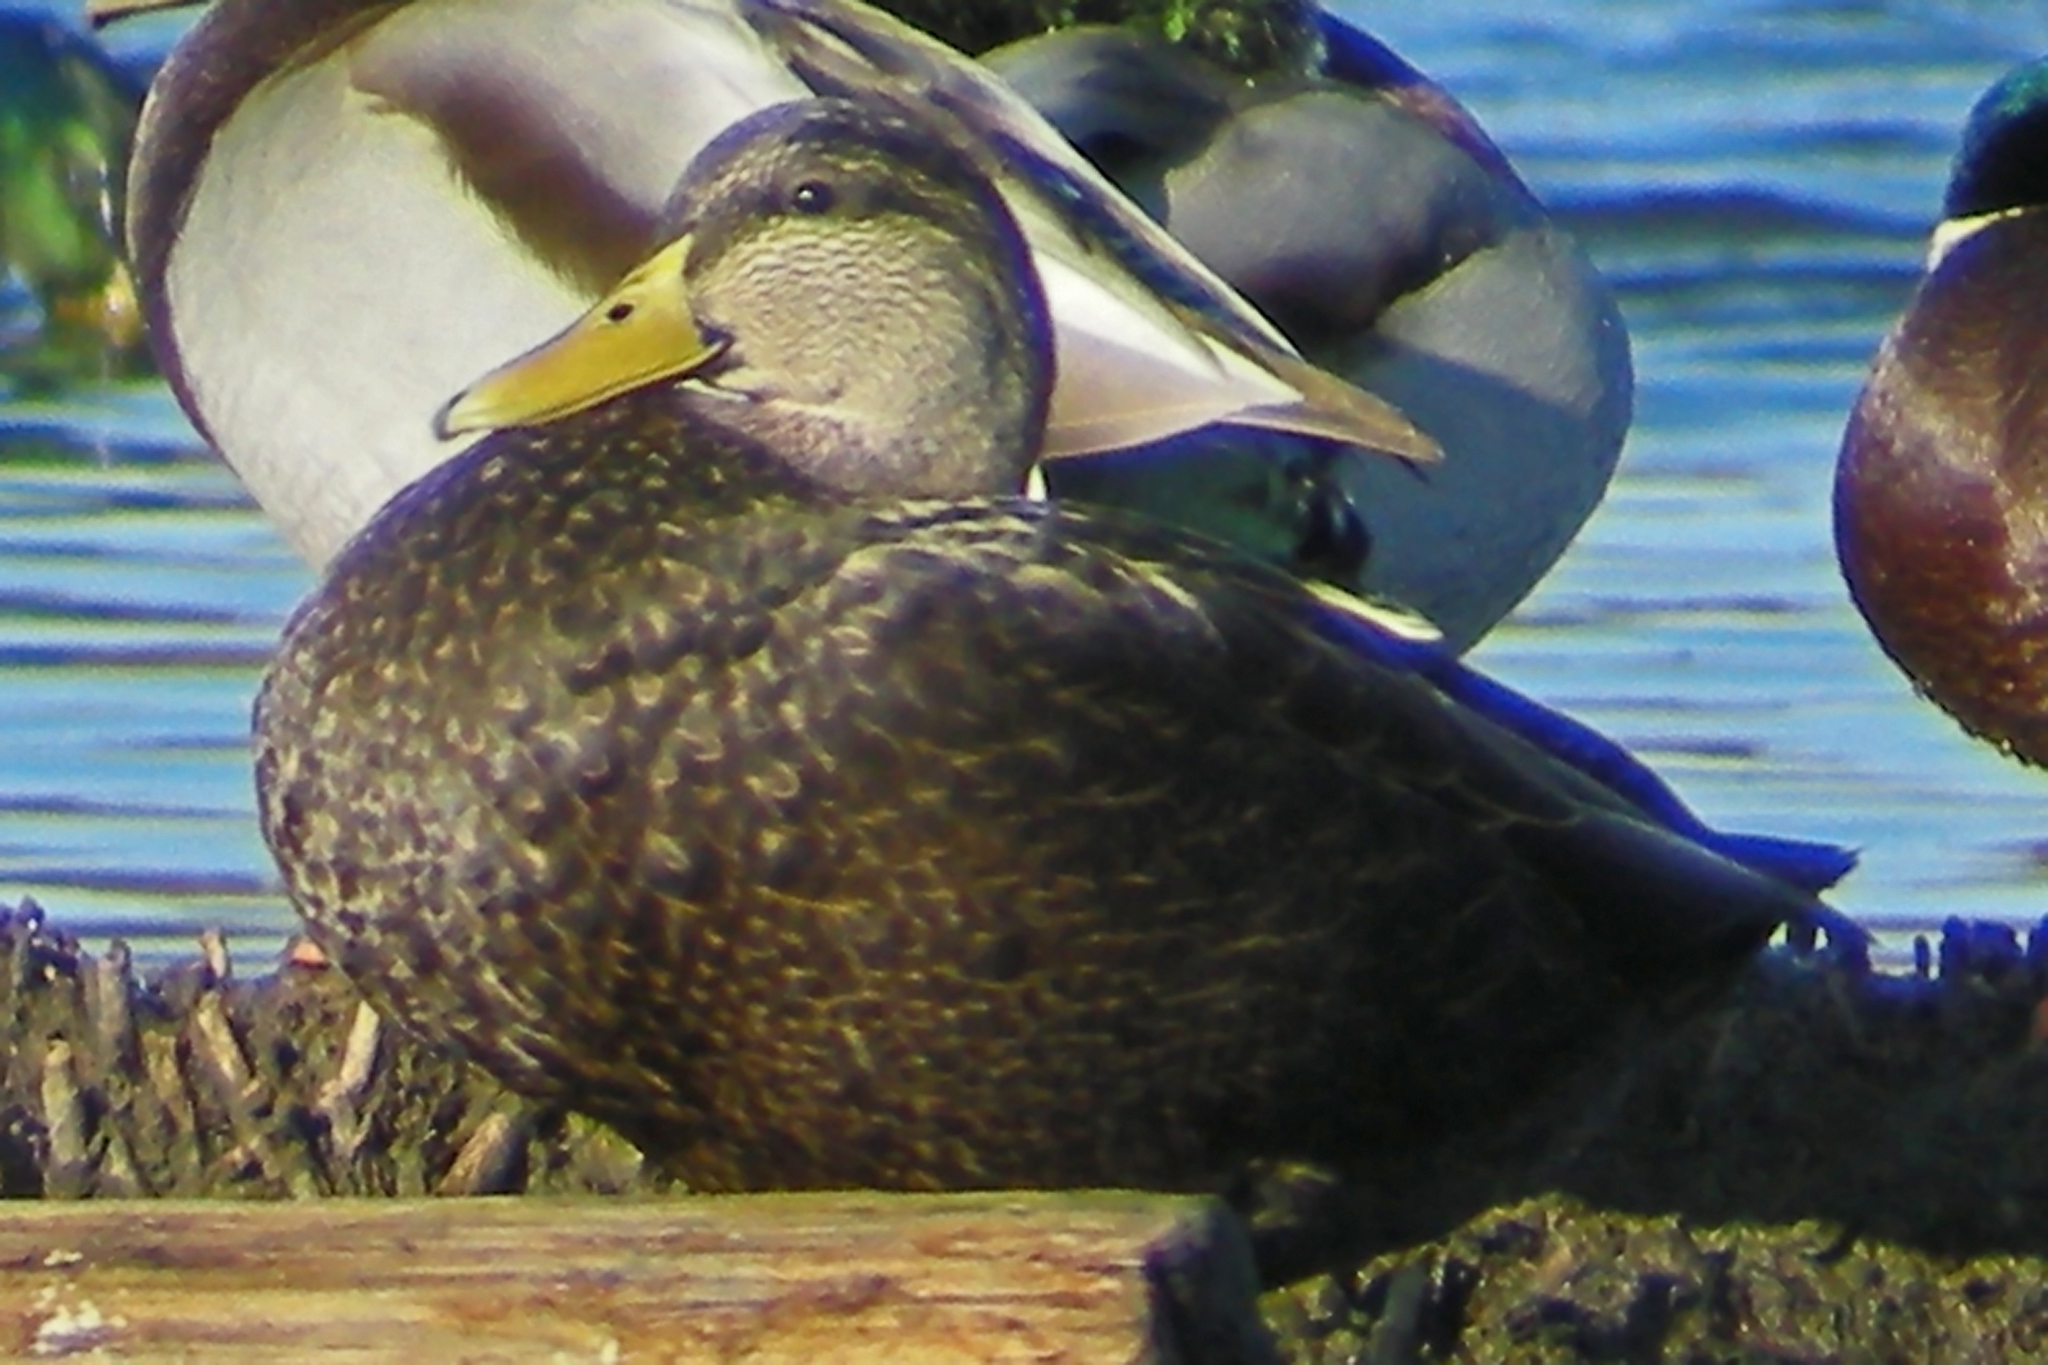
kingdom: Animalia
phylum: Chordata
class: Aves
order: Anseriformes
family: Anatidae
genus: Anas
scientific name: Anas rubripes
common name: American black duck
